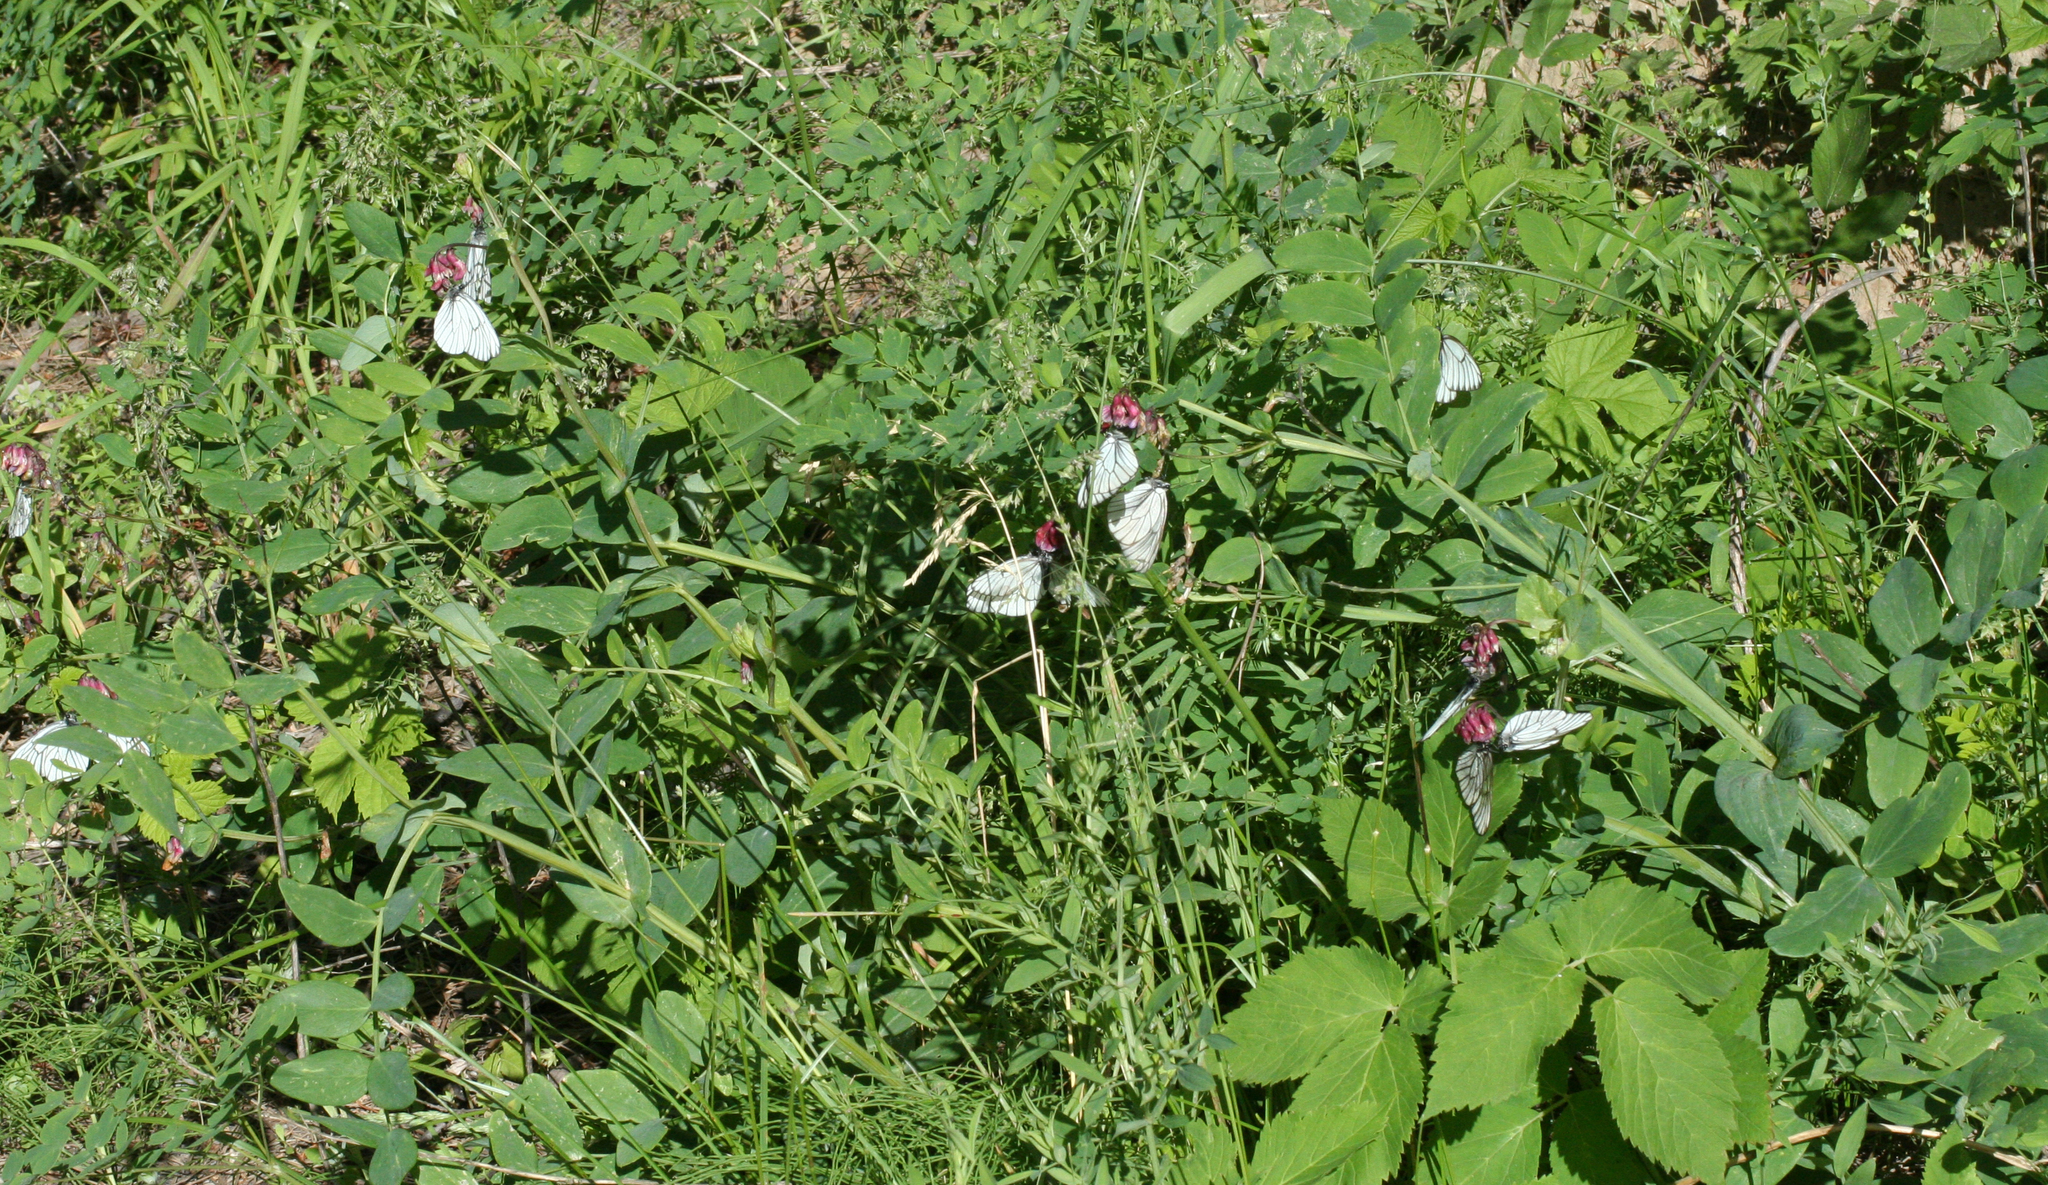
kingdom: Animalia
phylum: Arthropoda
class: Insecta
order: Lepidoptera
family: Pieridae
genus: Aporia
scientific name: Aporia crataegi
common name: Black-veined white
